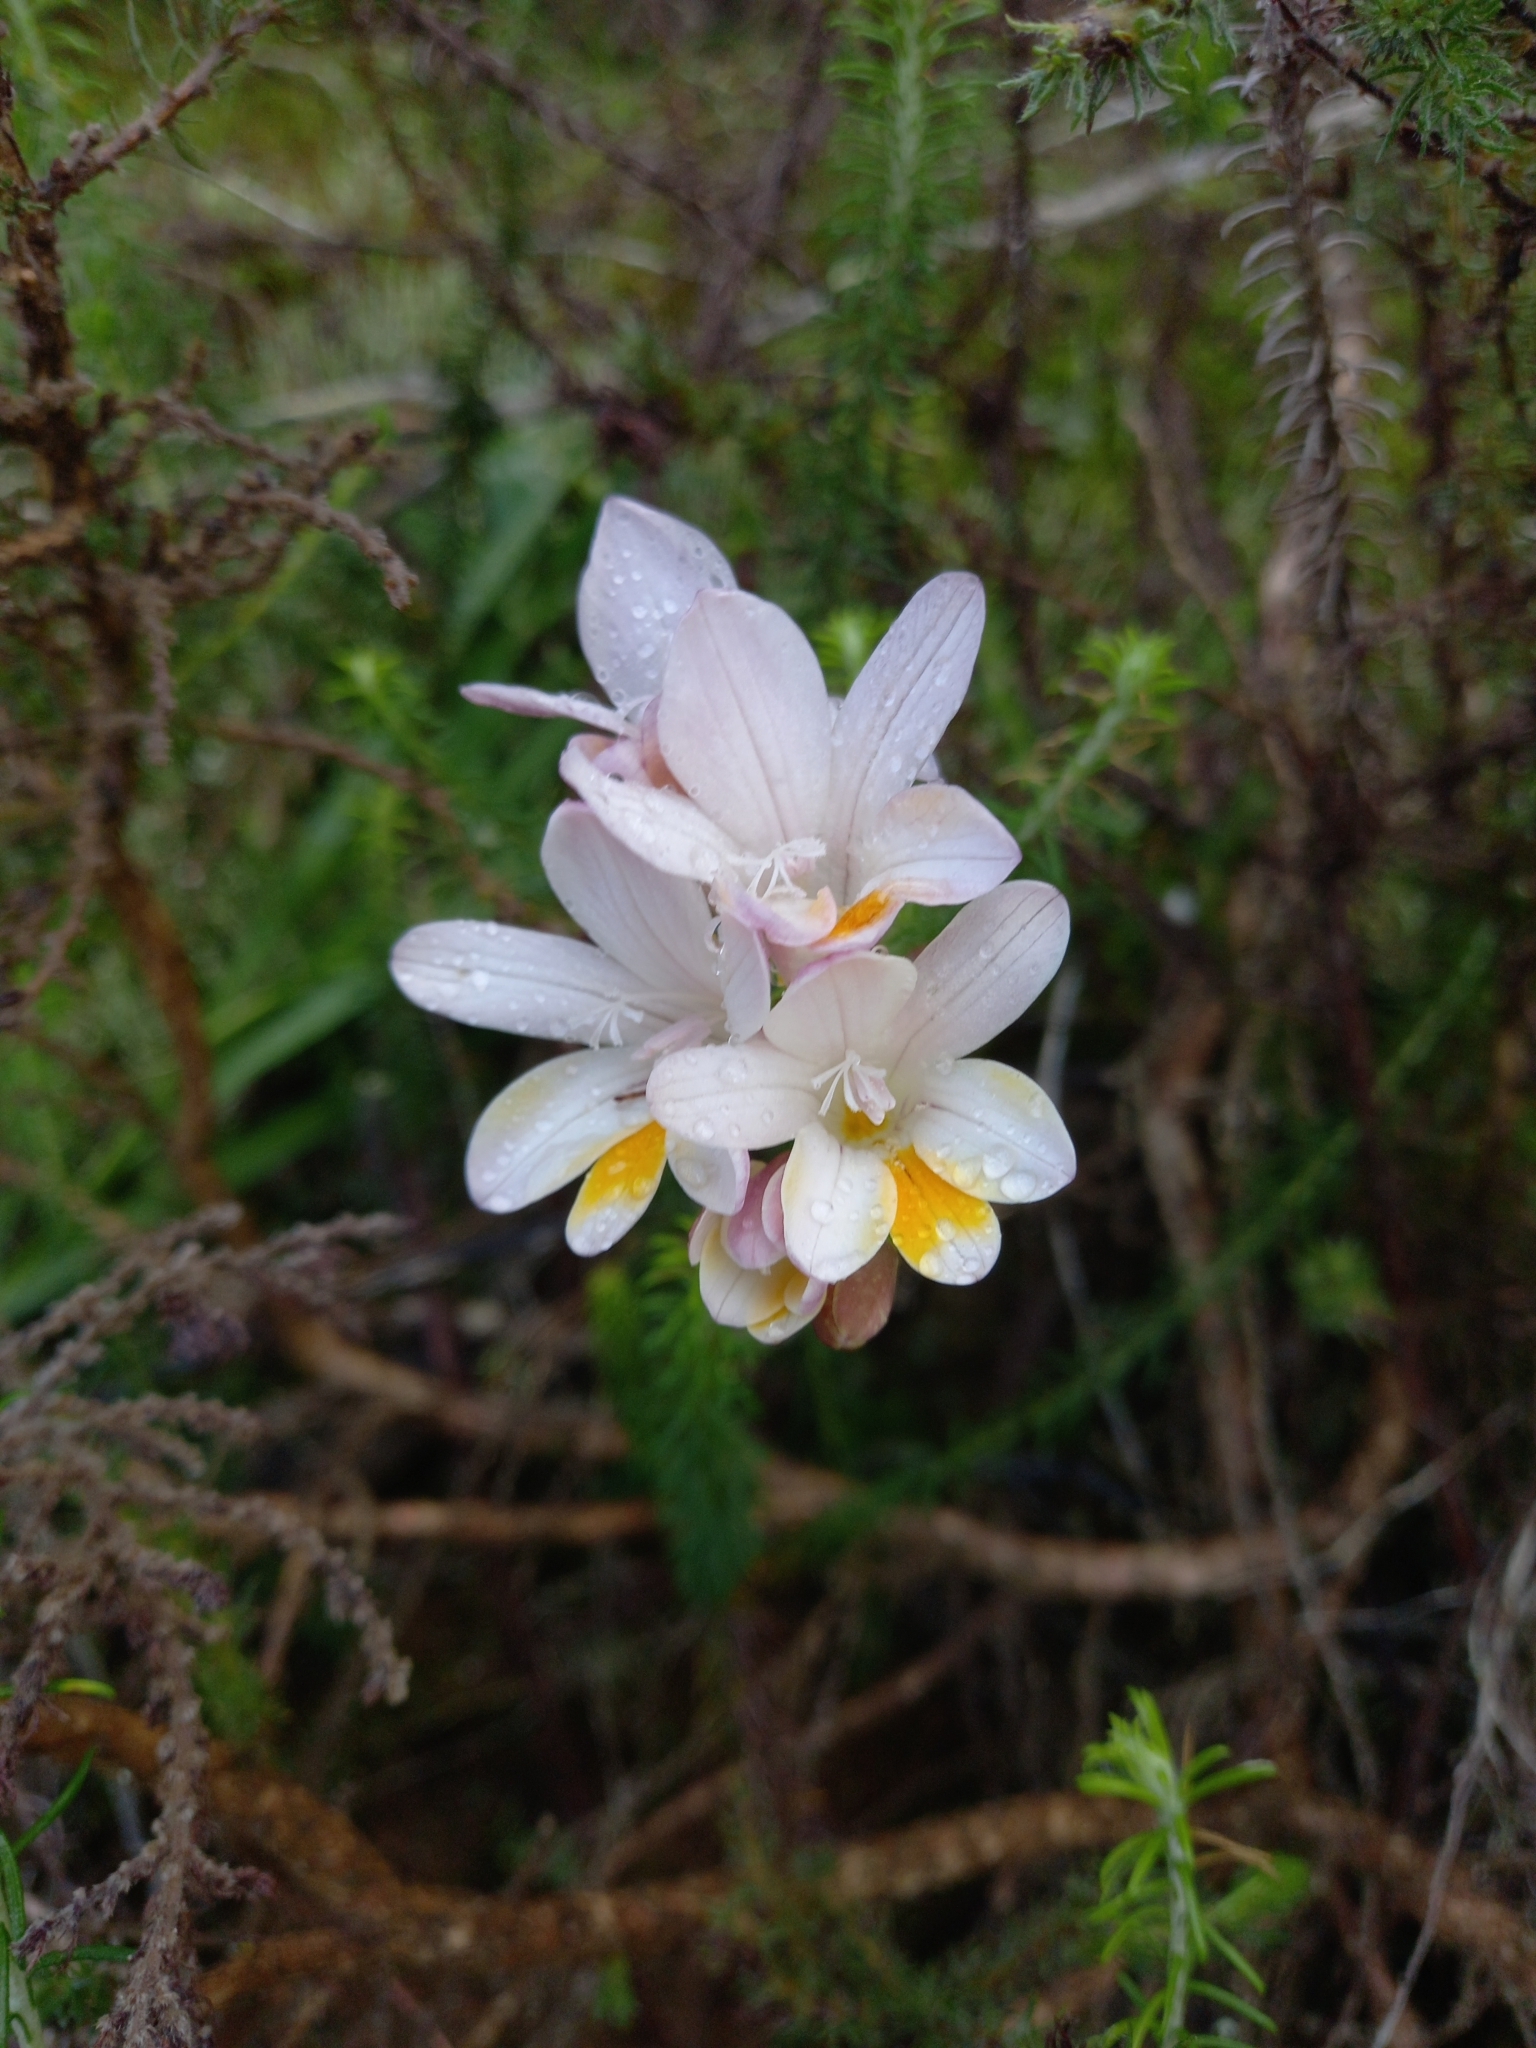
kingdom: Plantae
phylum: Tracheophyta
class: Liliopsida
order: Asparagales
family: Iridaceae
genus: Freesia
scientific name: Freesia leichtlinii
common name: Freesia
